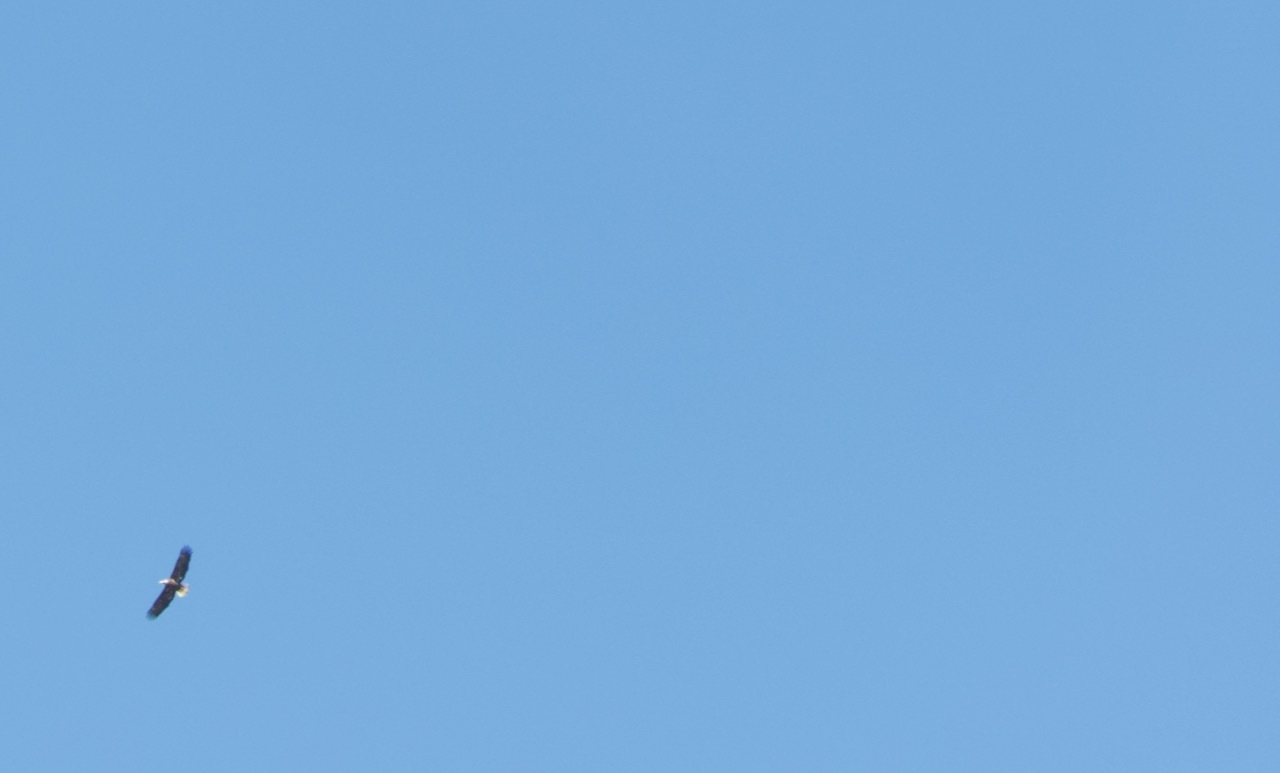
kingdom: Animalia
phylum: Chordata
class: Aves
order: Accipitriformes
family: Accipitridae
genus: Haliaeetus
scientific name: Haliaeetus leucocephalus
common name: Bald eagle
